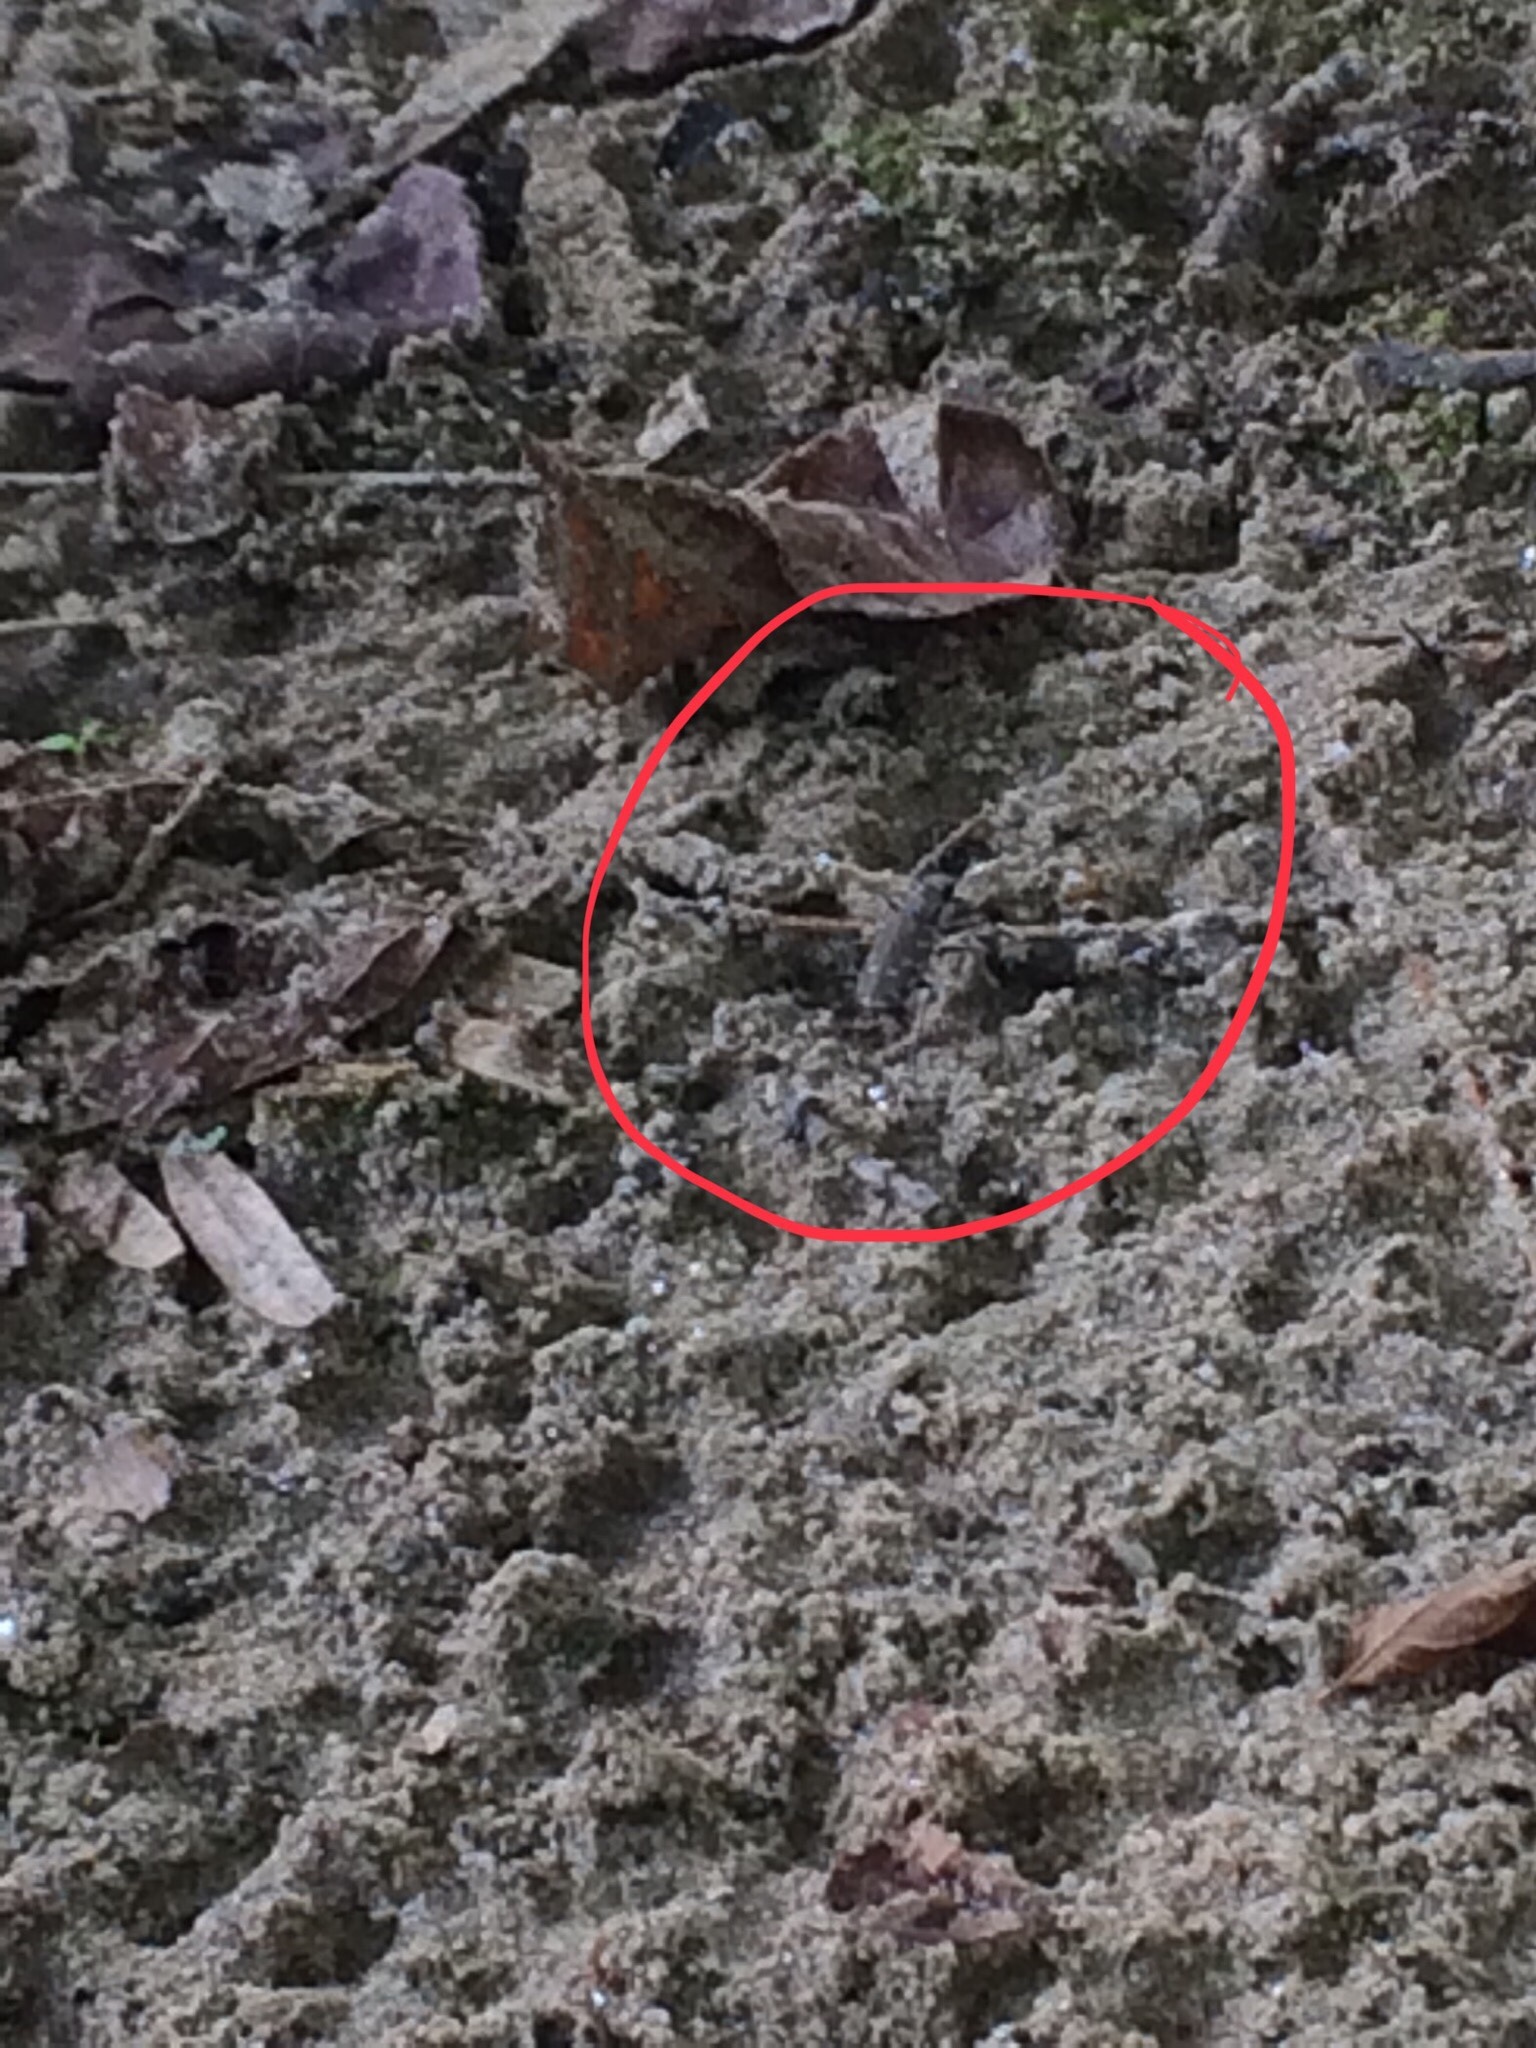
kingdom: Animalia
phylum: Arthropoda
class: Insecta
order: Coleoptera
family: Carabidae
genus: Cicindela
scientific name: Cicindela duodecimguttata
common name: Twelve-spotted tiger beetle
